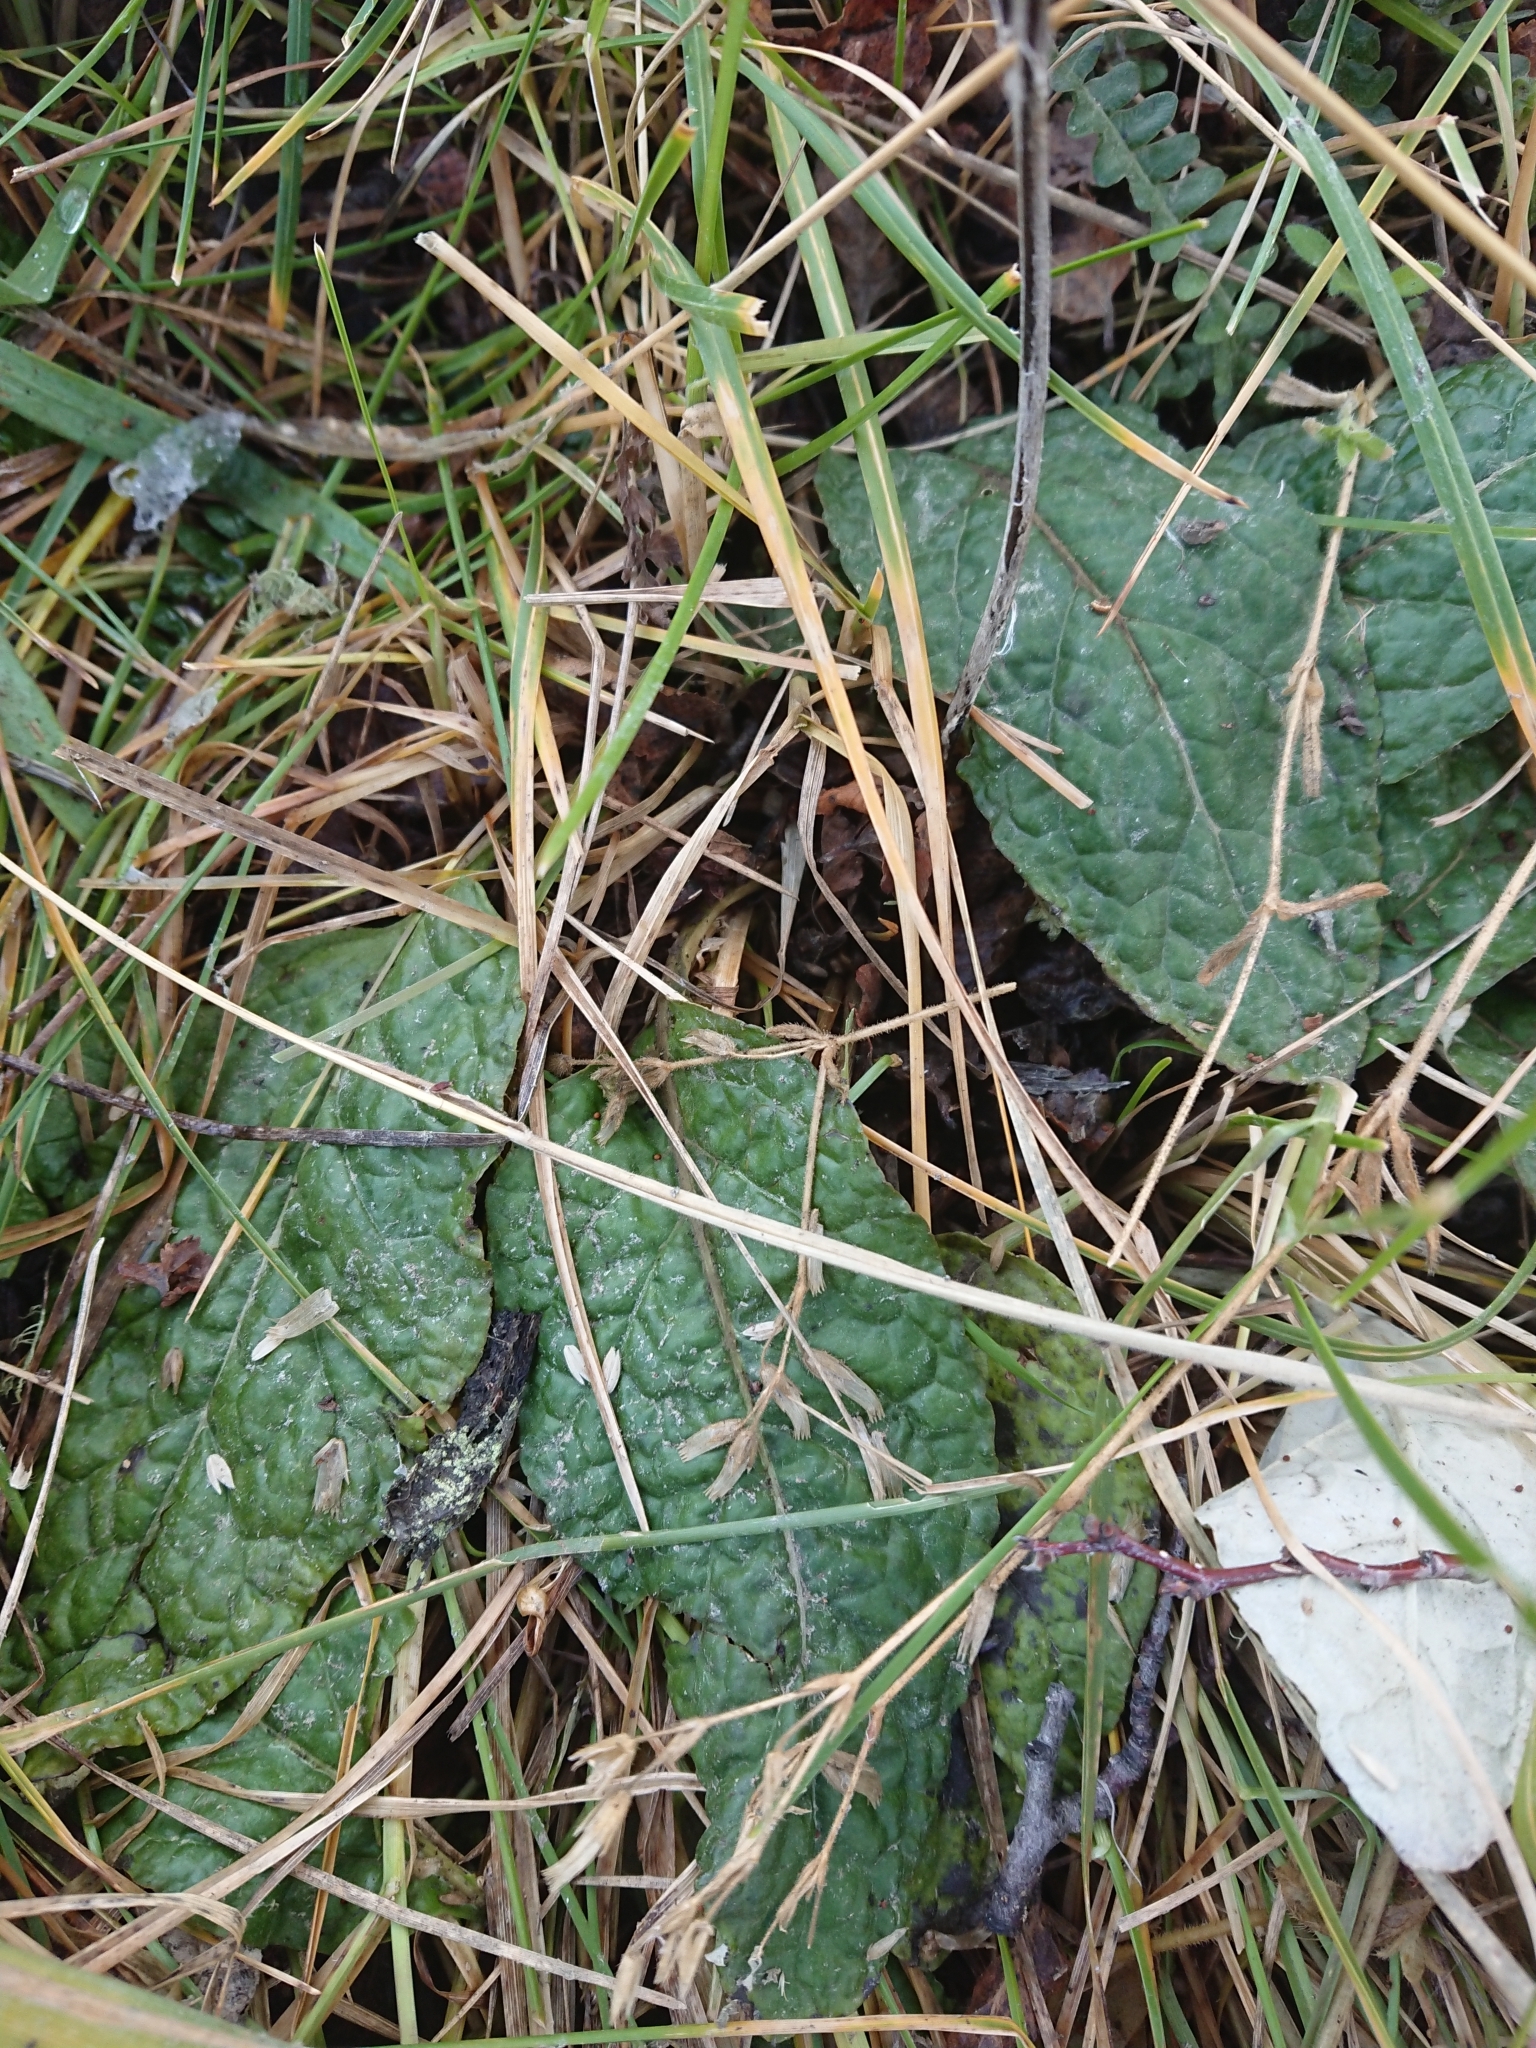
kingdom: Plantae
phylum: Tracheophyta
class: Magnoliopsida
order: Asterales
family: Asteraceae
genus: Adenocaulon
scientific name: Adenocaulon chilense
